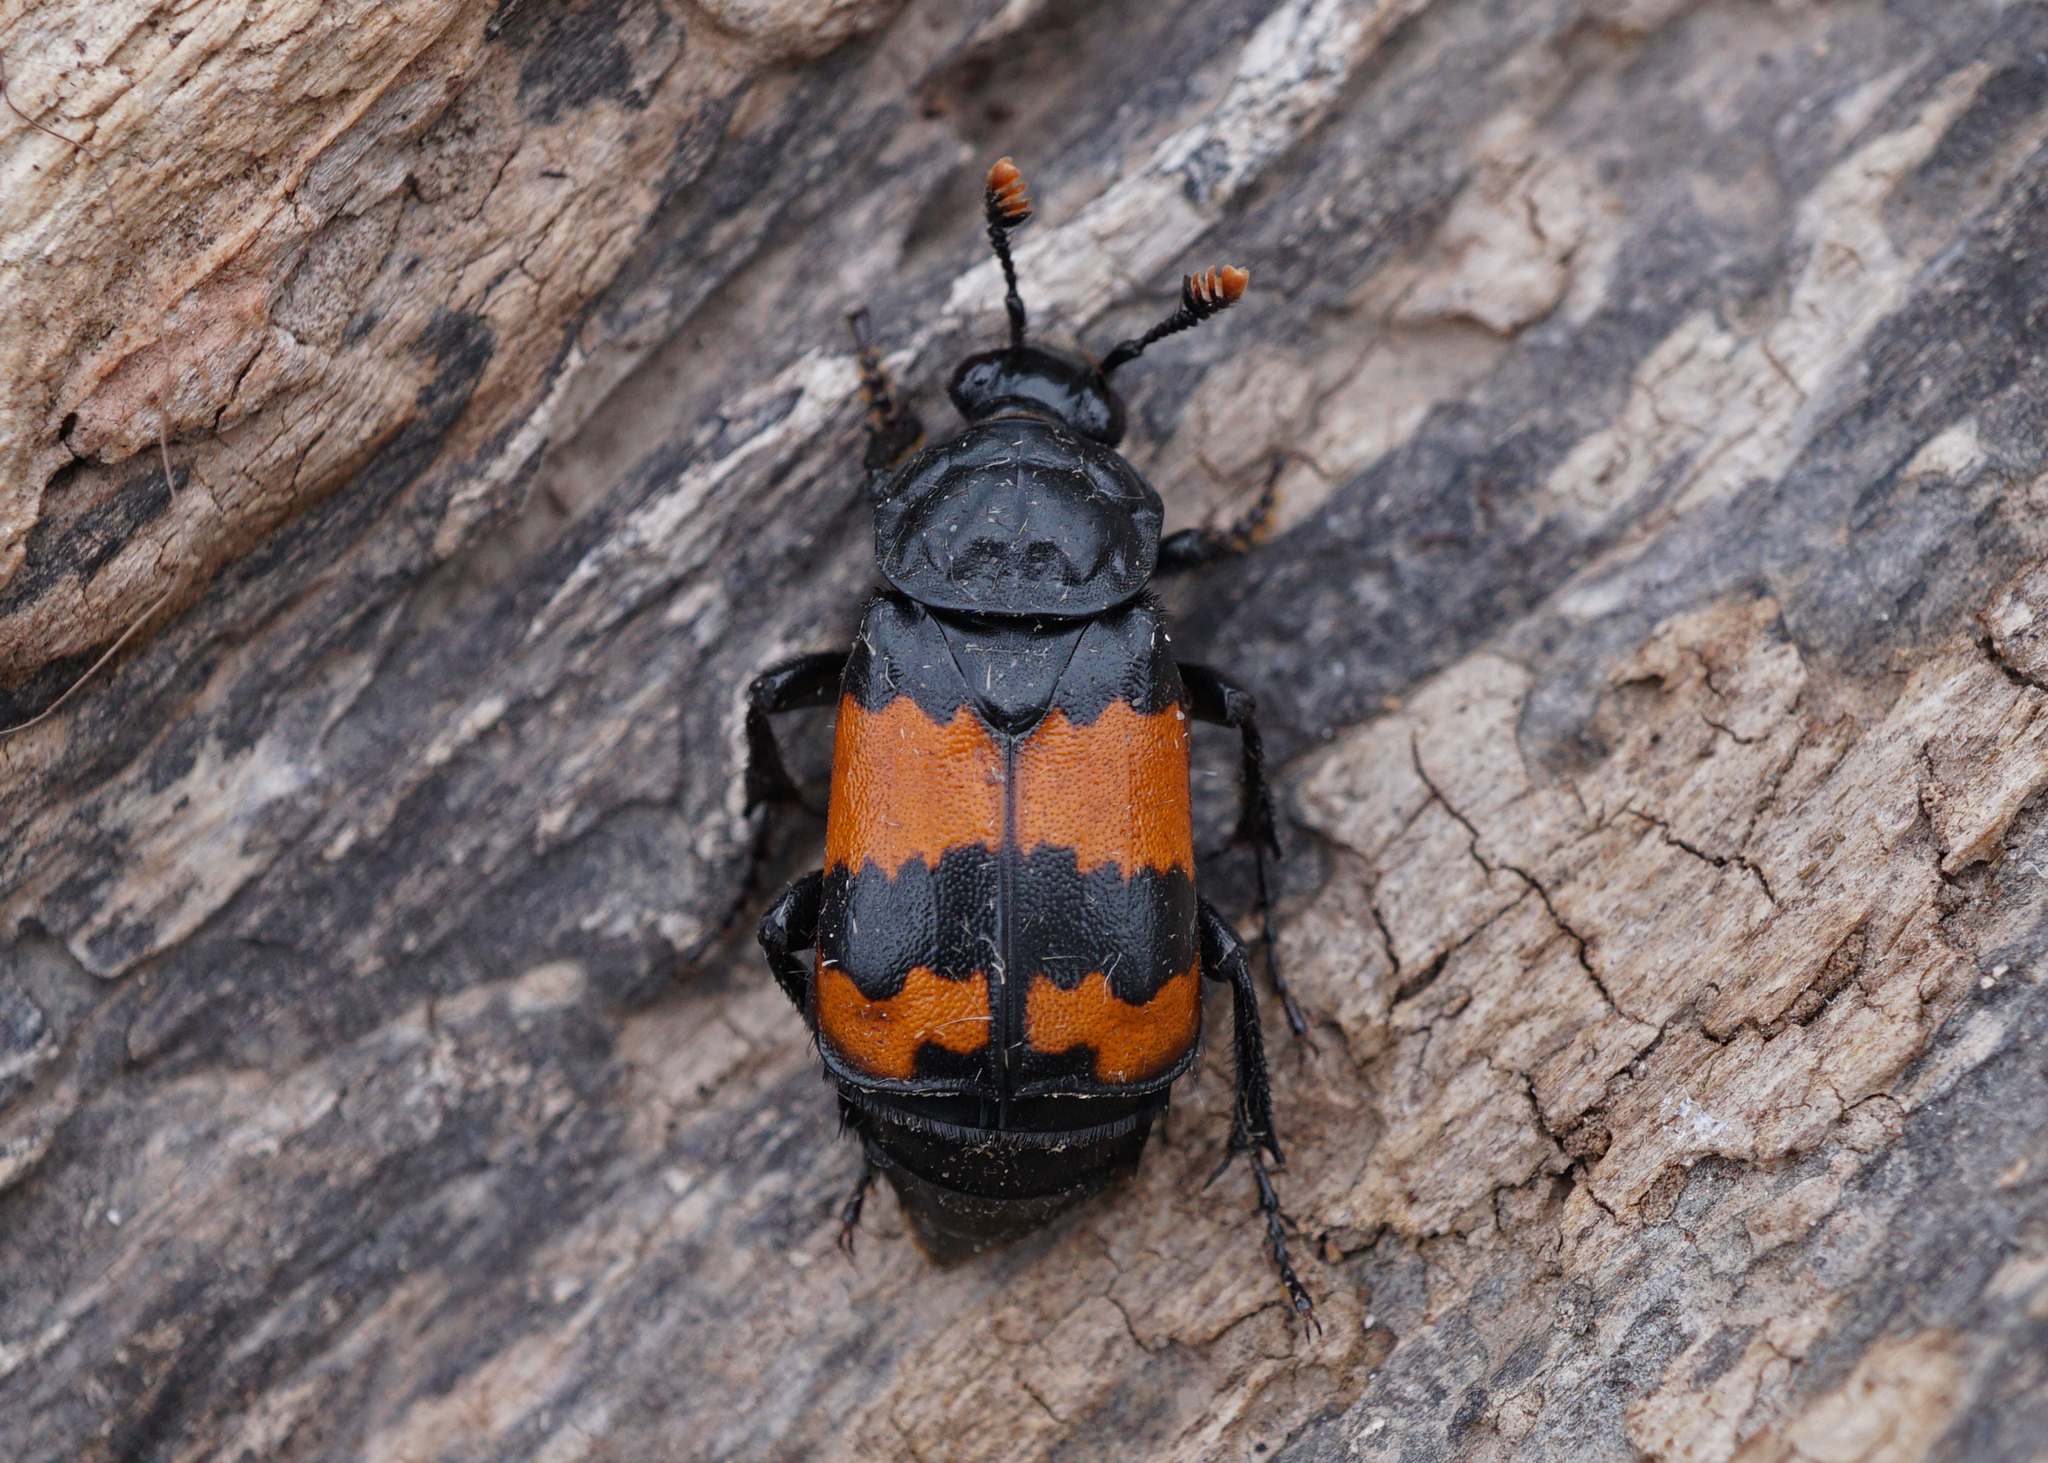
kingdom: Animalia
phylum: Arthropoda
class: Insecta
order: Coleoptera
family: Staphylinidae
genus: Nicrophorus
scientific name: Nicrophorus investigator
